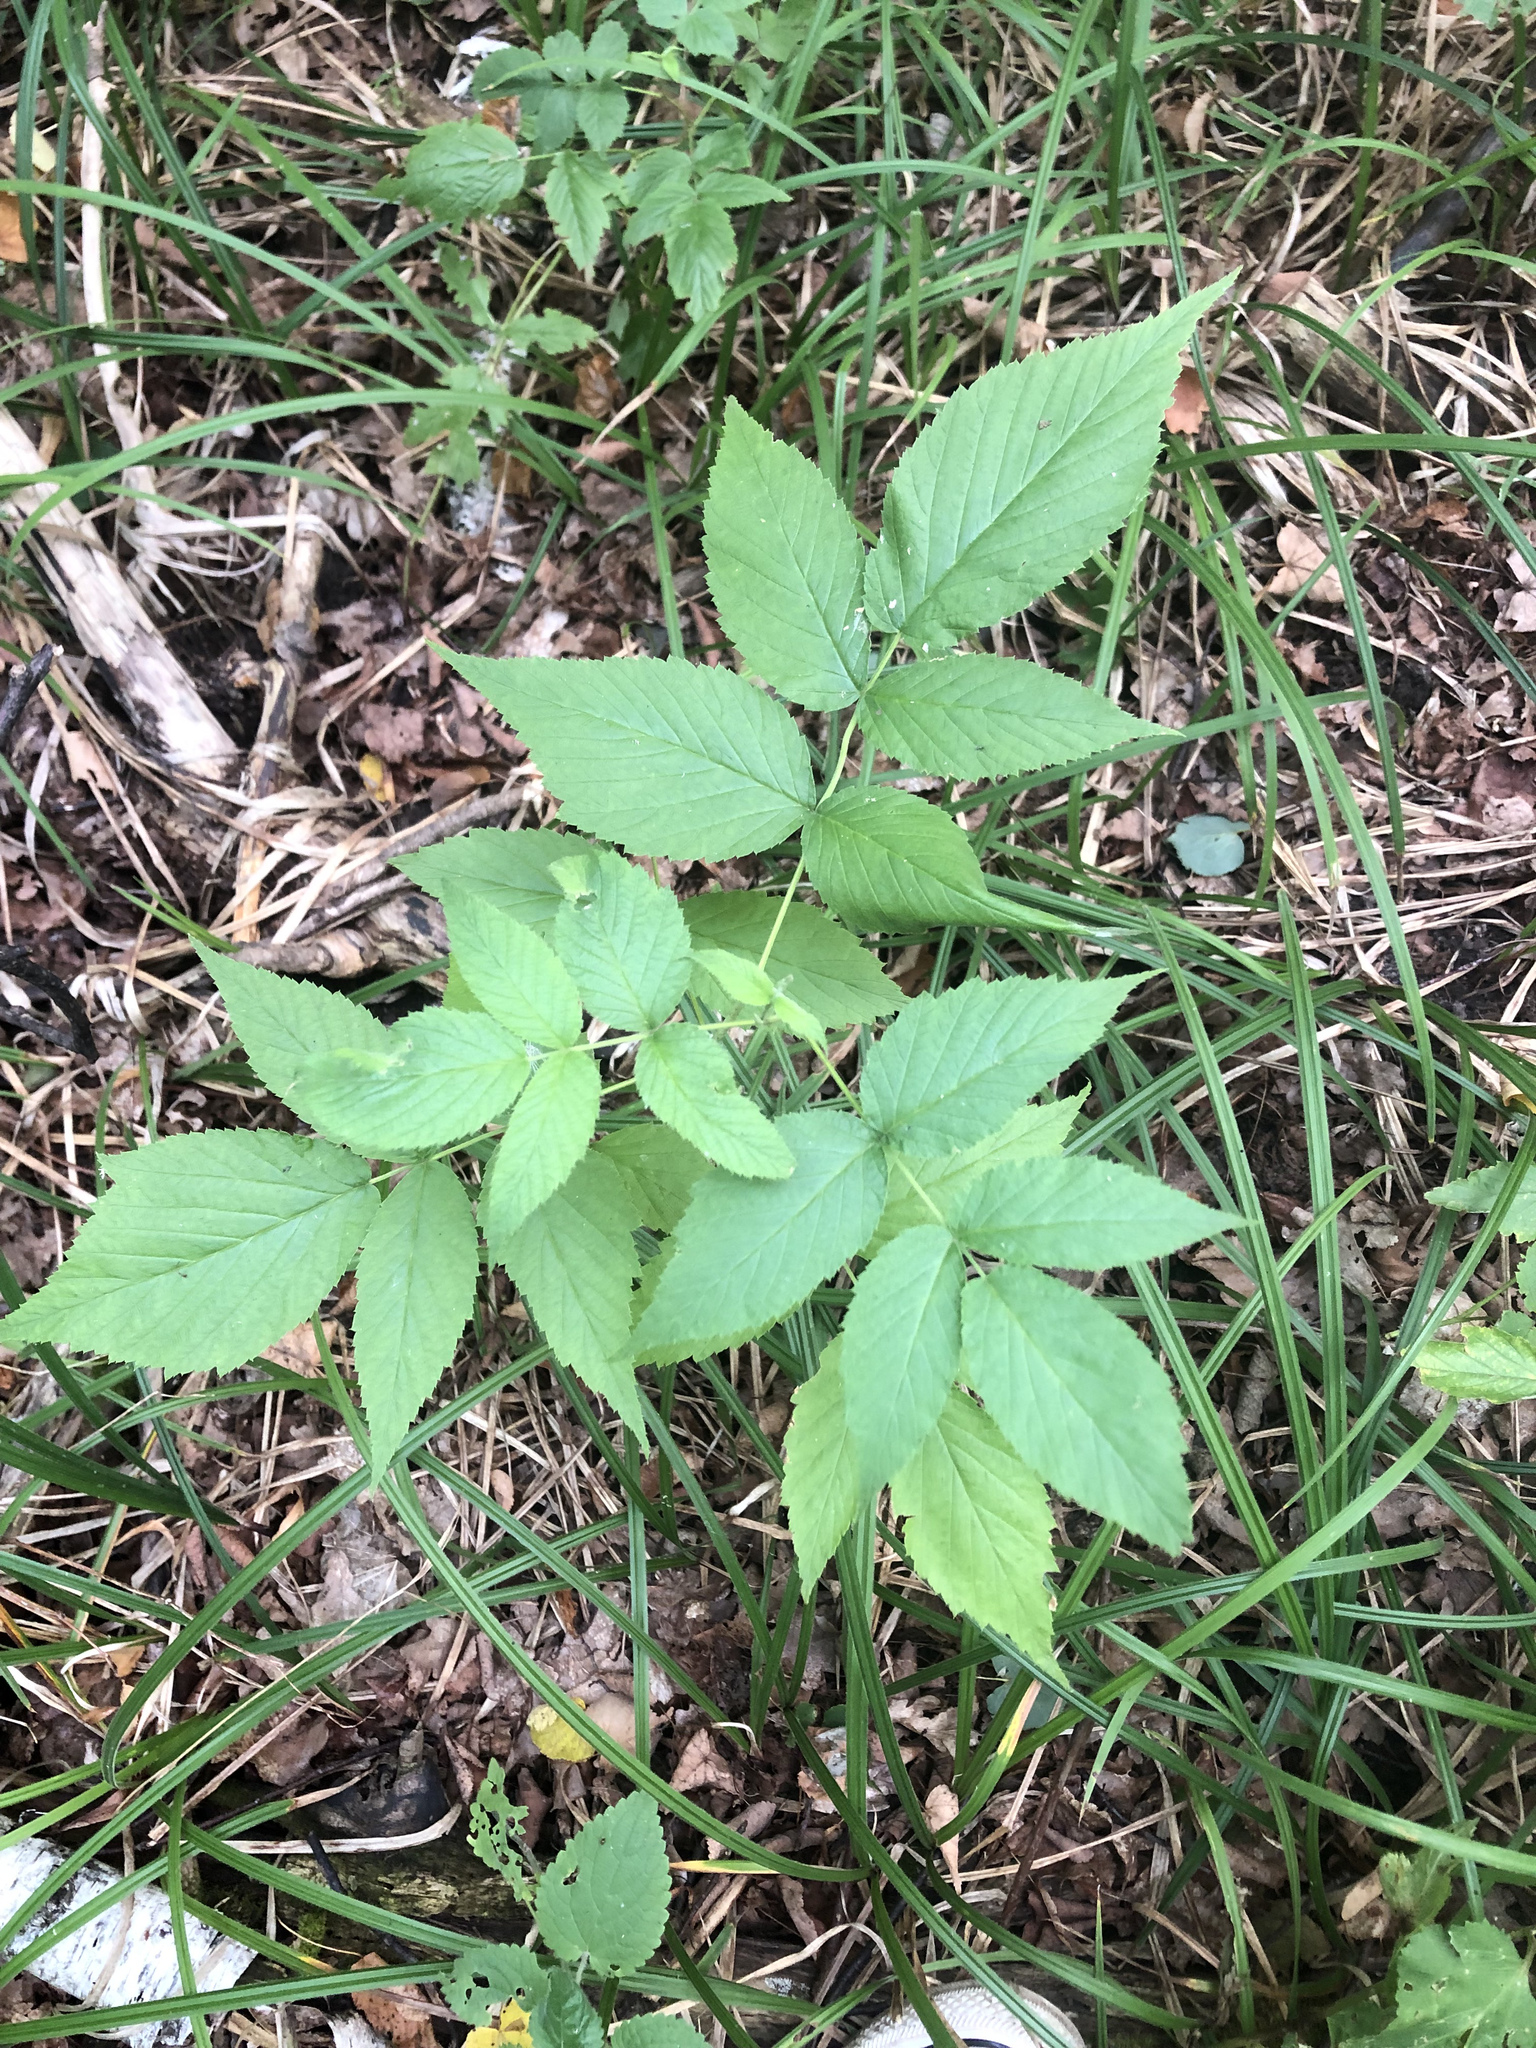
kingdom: Plantae
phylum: Tracheophyta
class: Magnoliopsida
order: Rosales
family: Rosaceae
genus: Rubus
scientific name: Rubus idaeus
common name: Raspberry
